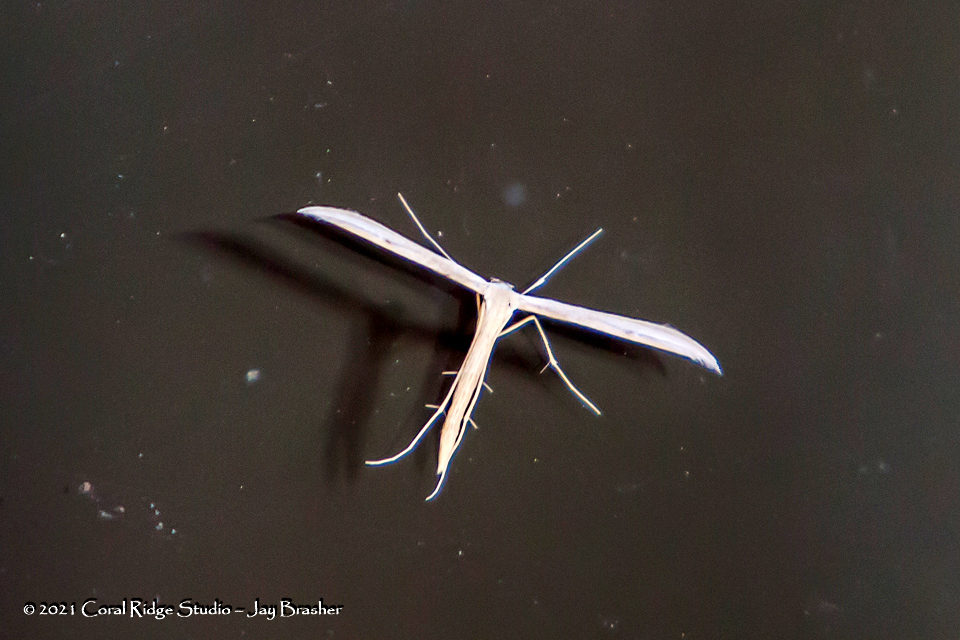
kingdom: Animalia
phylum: Arthropoda
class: Insecta
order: Lepidoptera
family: Pterophoridae
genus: Emmelina
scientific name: Emmelina monodactyla
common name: Common plume
